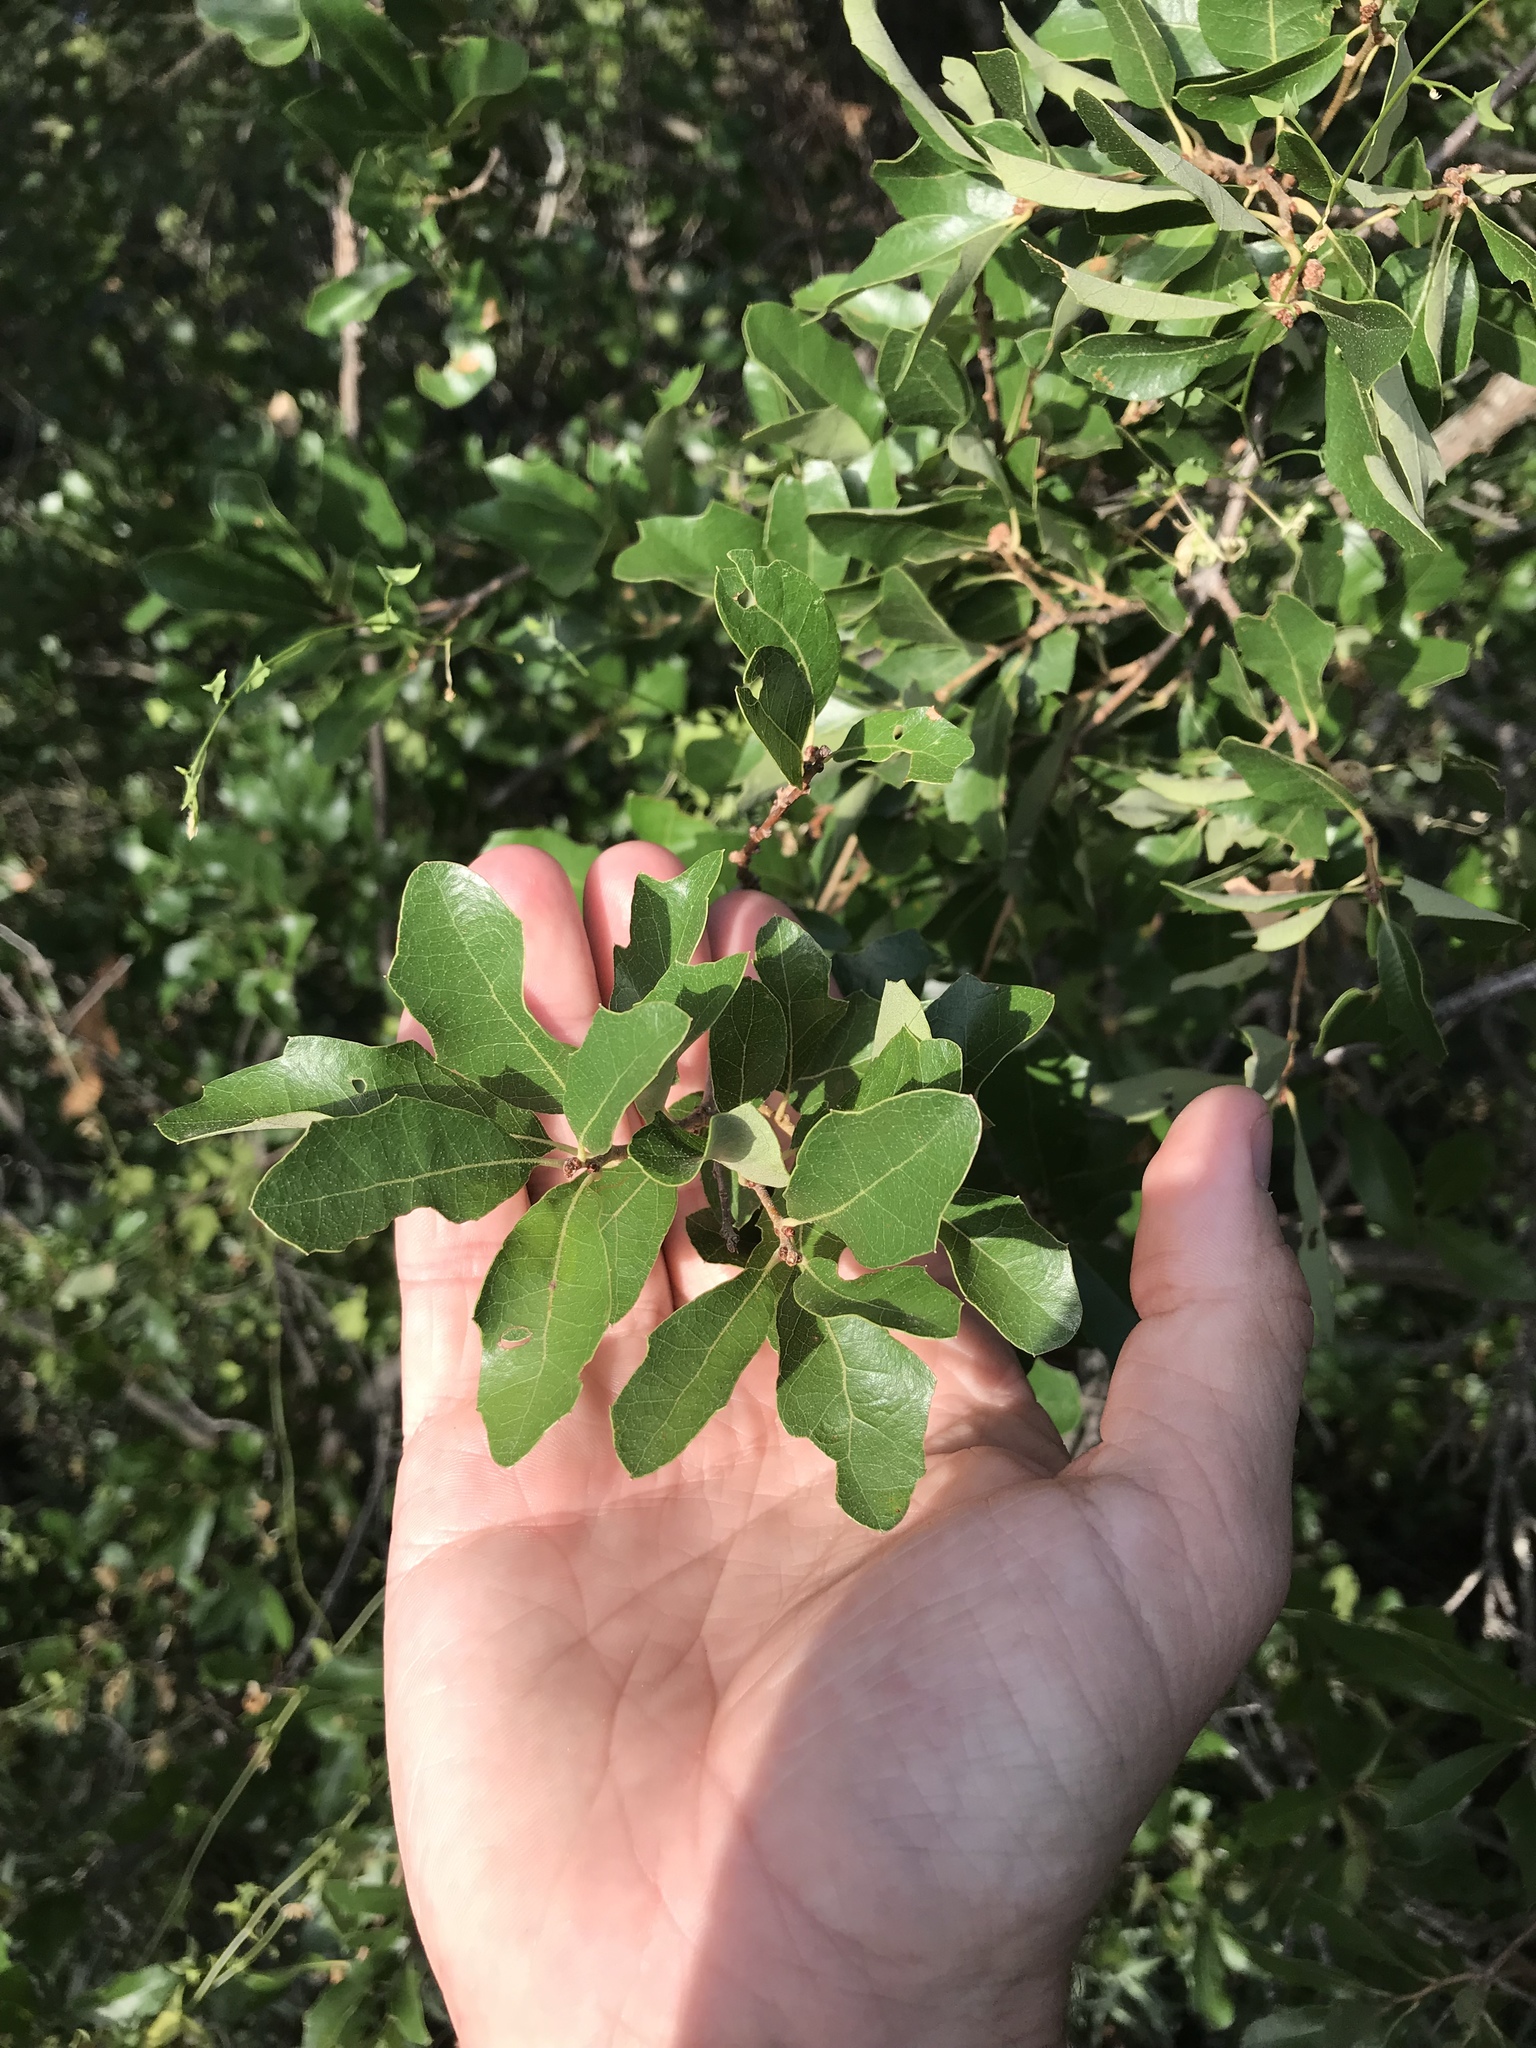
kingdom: Plantae
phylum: Tracheophyta
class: Magnoliopsida
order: Fagales
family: Fagaceae
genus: Quercus
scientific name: Quercus vaseyana
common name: Sandpaper oak
